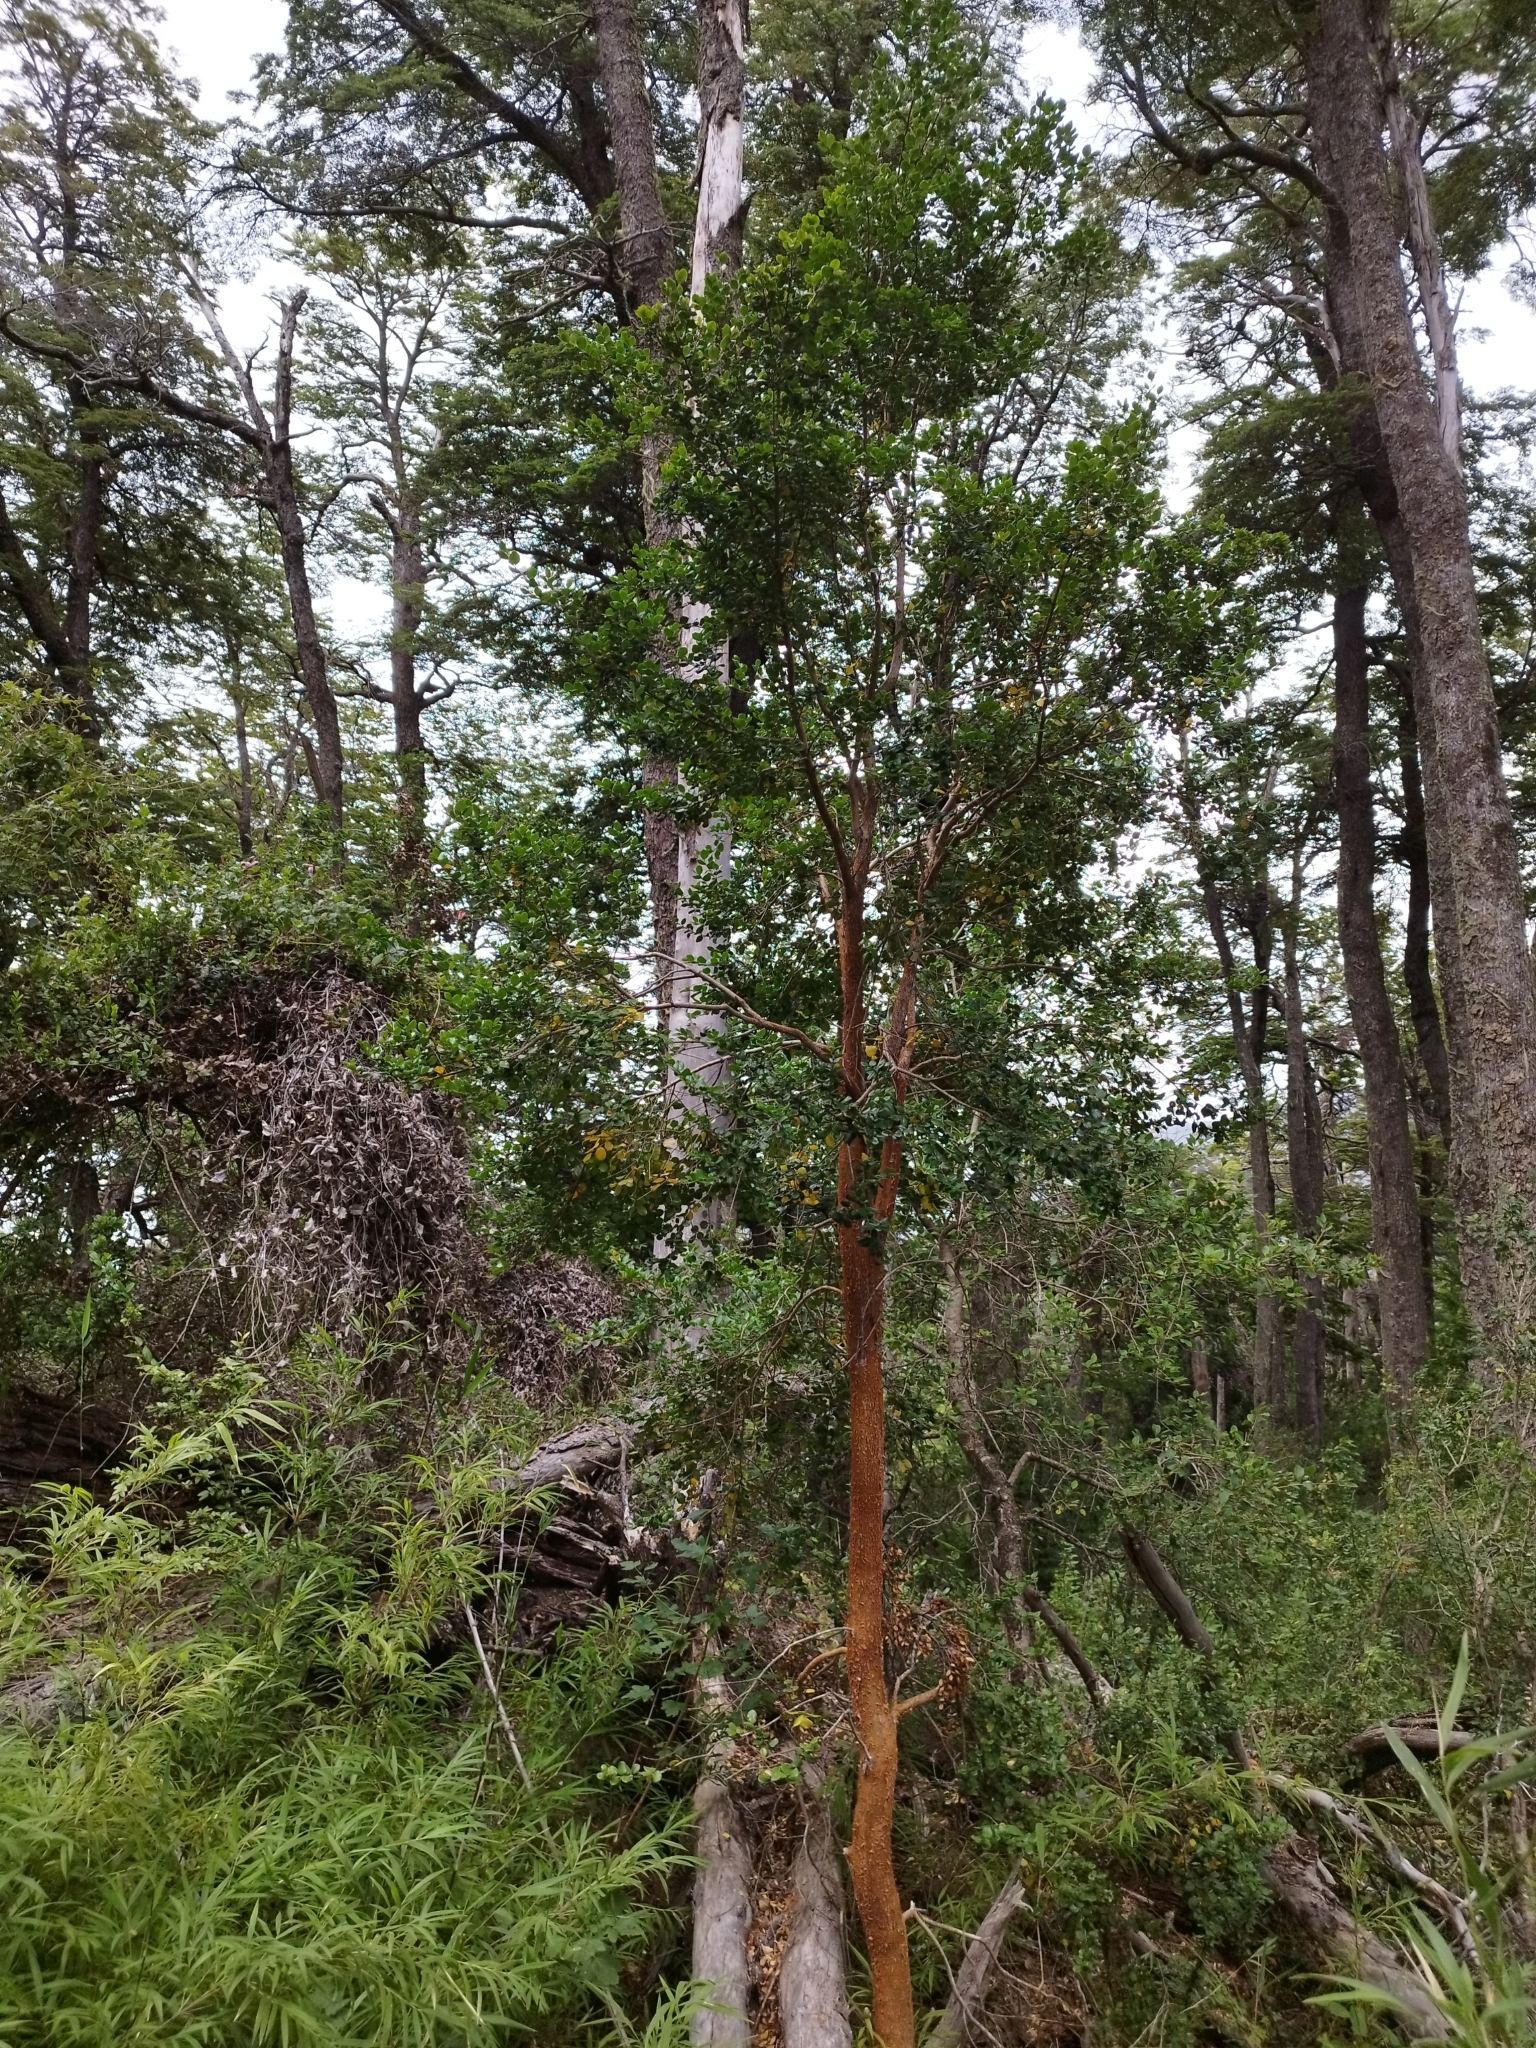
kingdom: Plantae
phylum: Tracheophyta
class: Magnoliopsida
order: Myrtales
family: Myrtaceae
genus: Luma
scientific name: Luma apiculata
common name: Chilean myrtle
